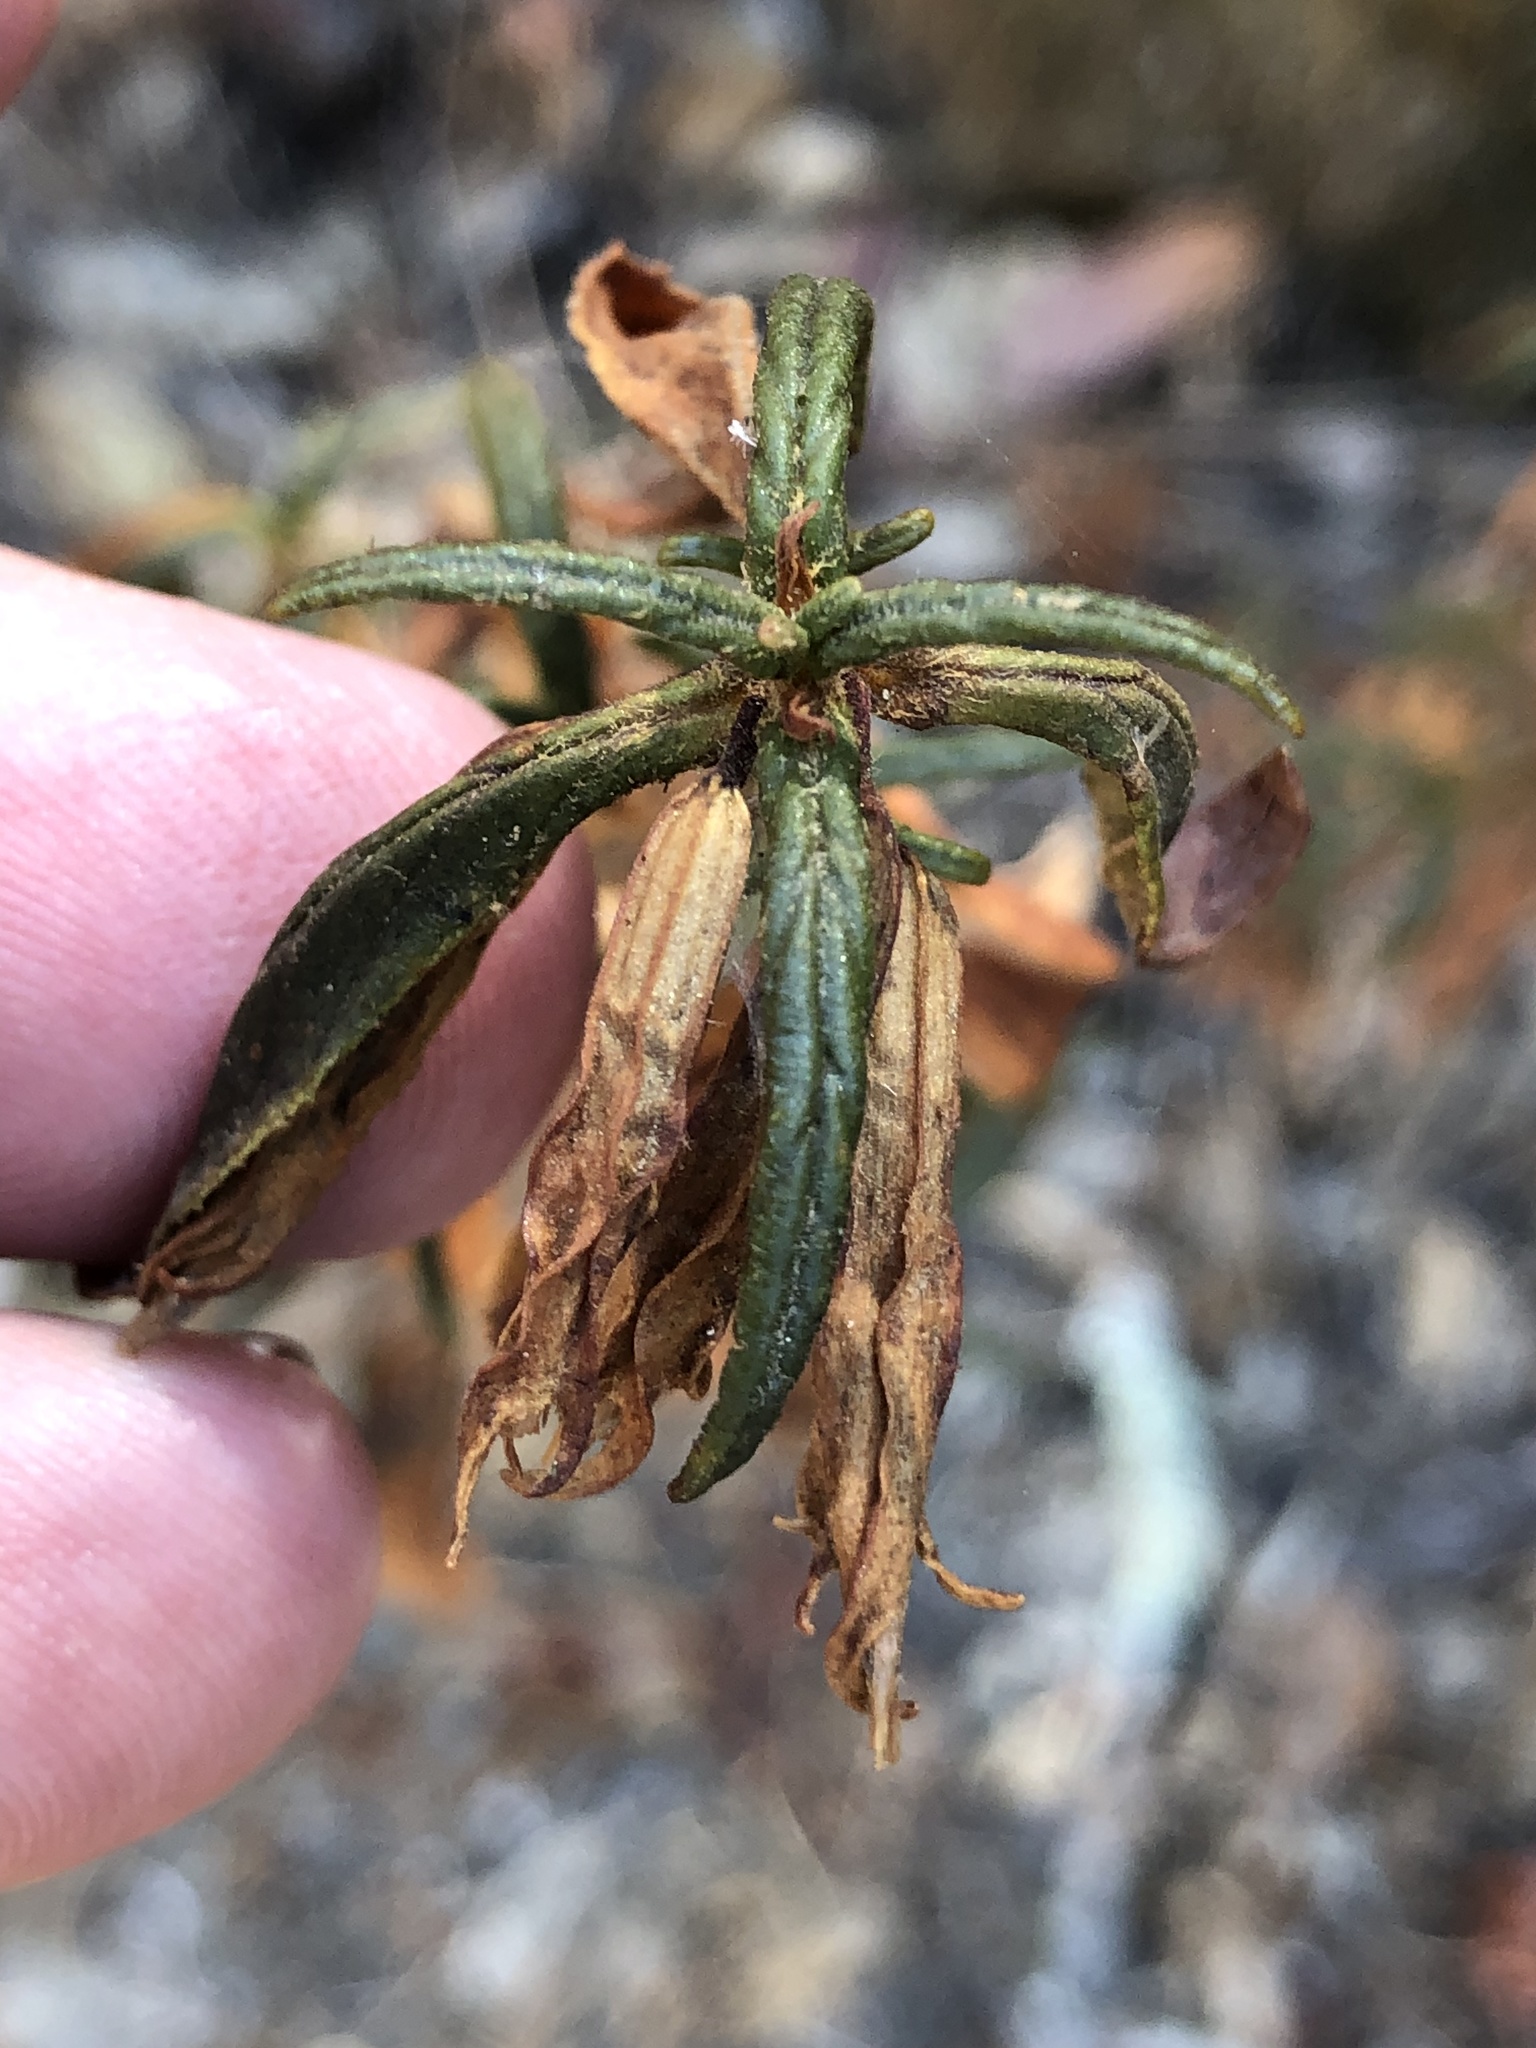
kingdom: Plantae
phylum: Tracheophyta
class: Magnoliopsida
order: Lamiales
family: Phrymaceae
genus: Diplacus
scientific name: Diplacus aurantiacus
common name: Bush monkey-flower
